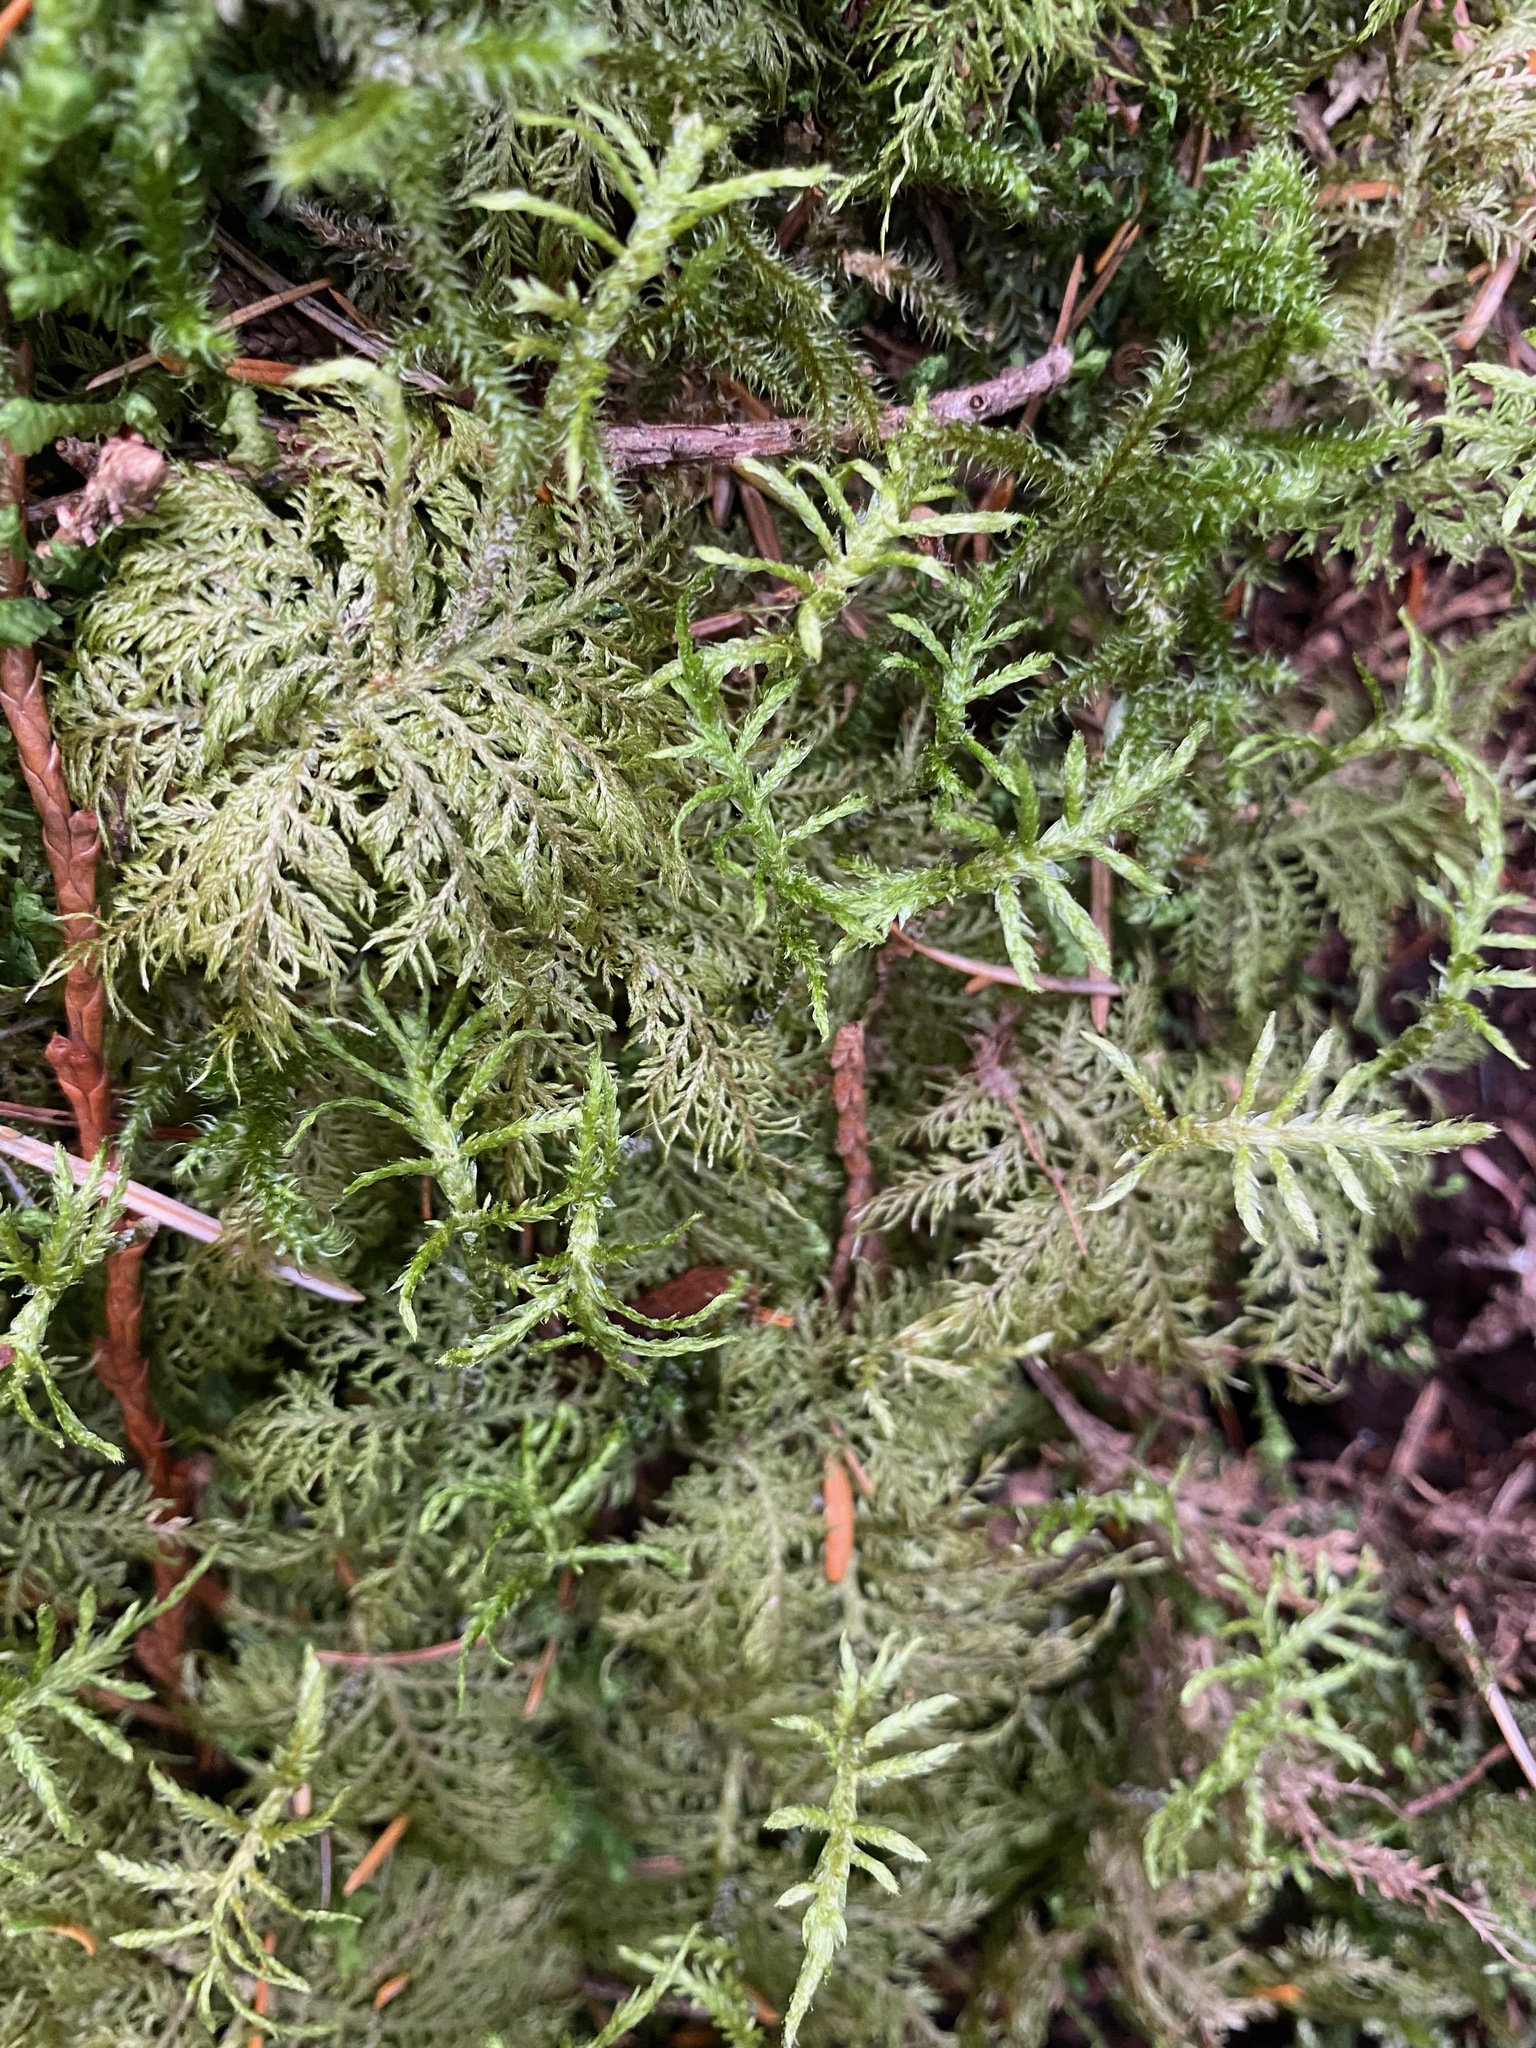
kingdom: Plantae
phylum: Bryophyta
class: Bryopsida
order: Hypnales
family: Hylocomiaceae
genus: Hylocomium
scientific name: Hylocomium splendens
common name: Stairstep moss
